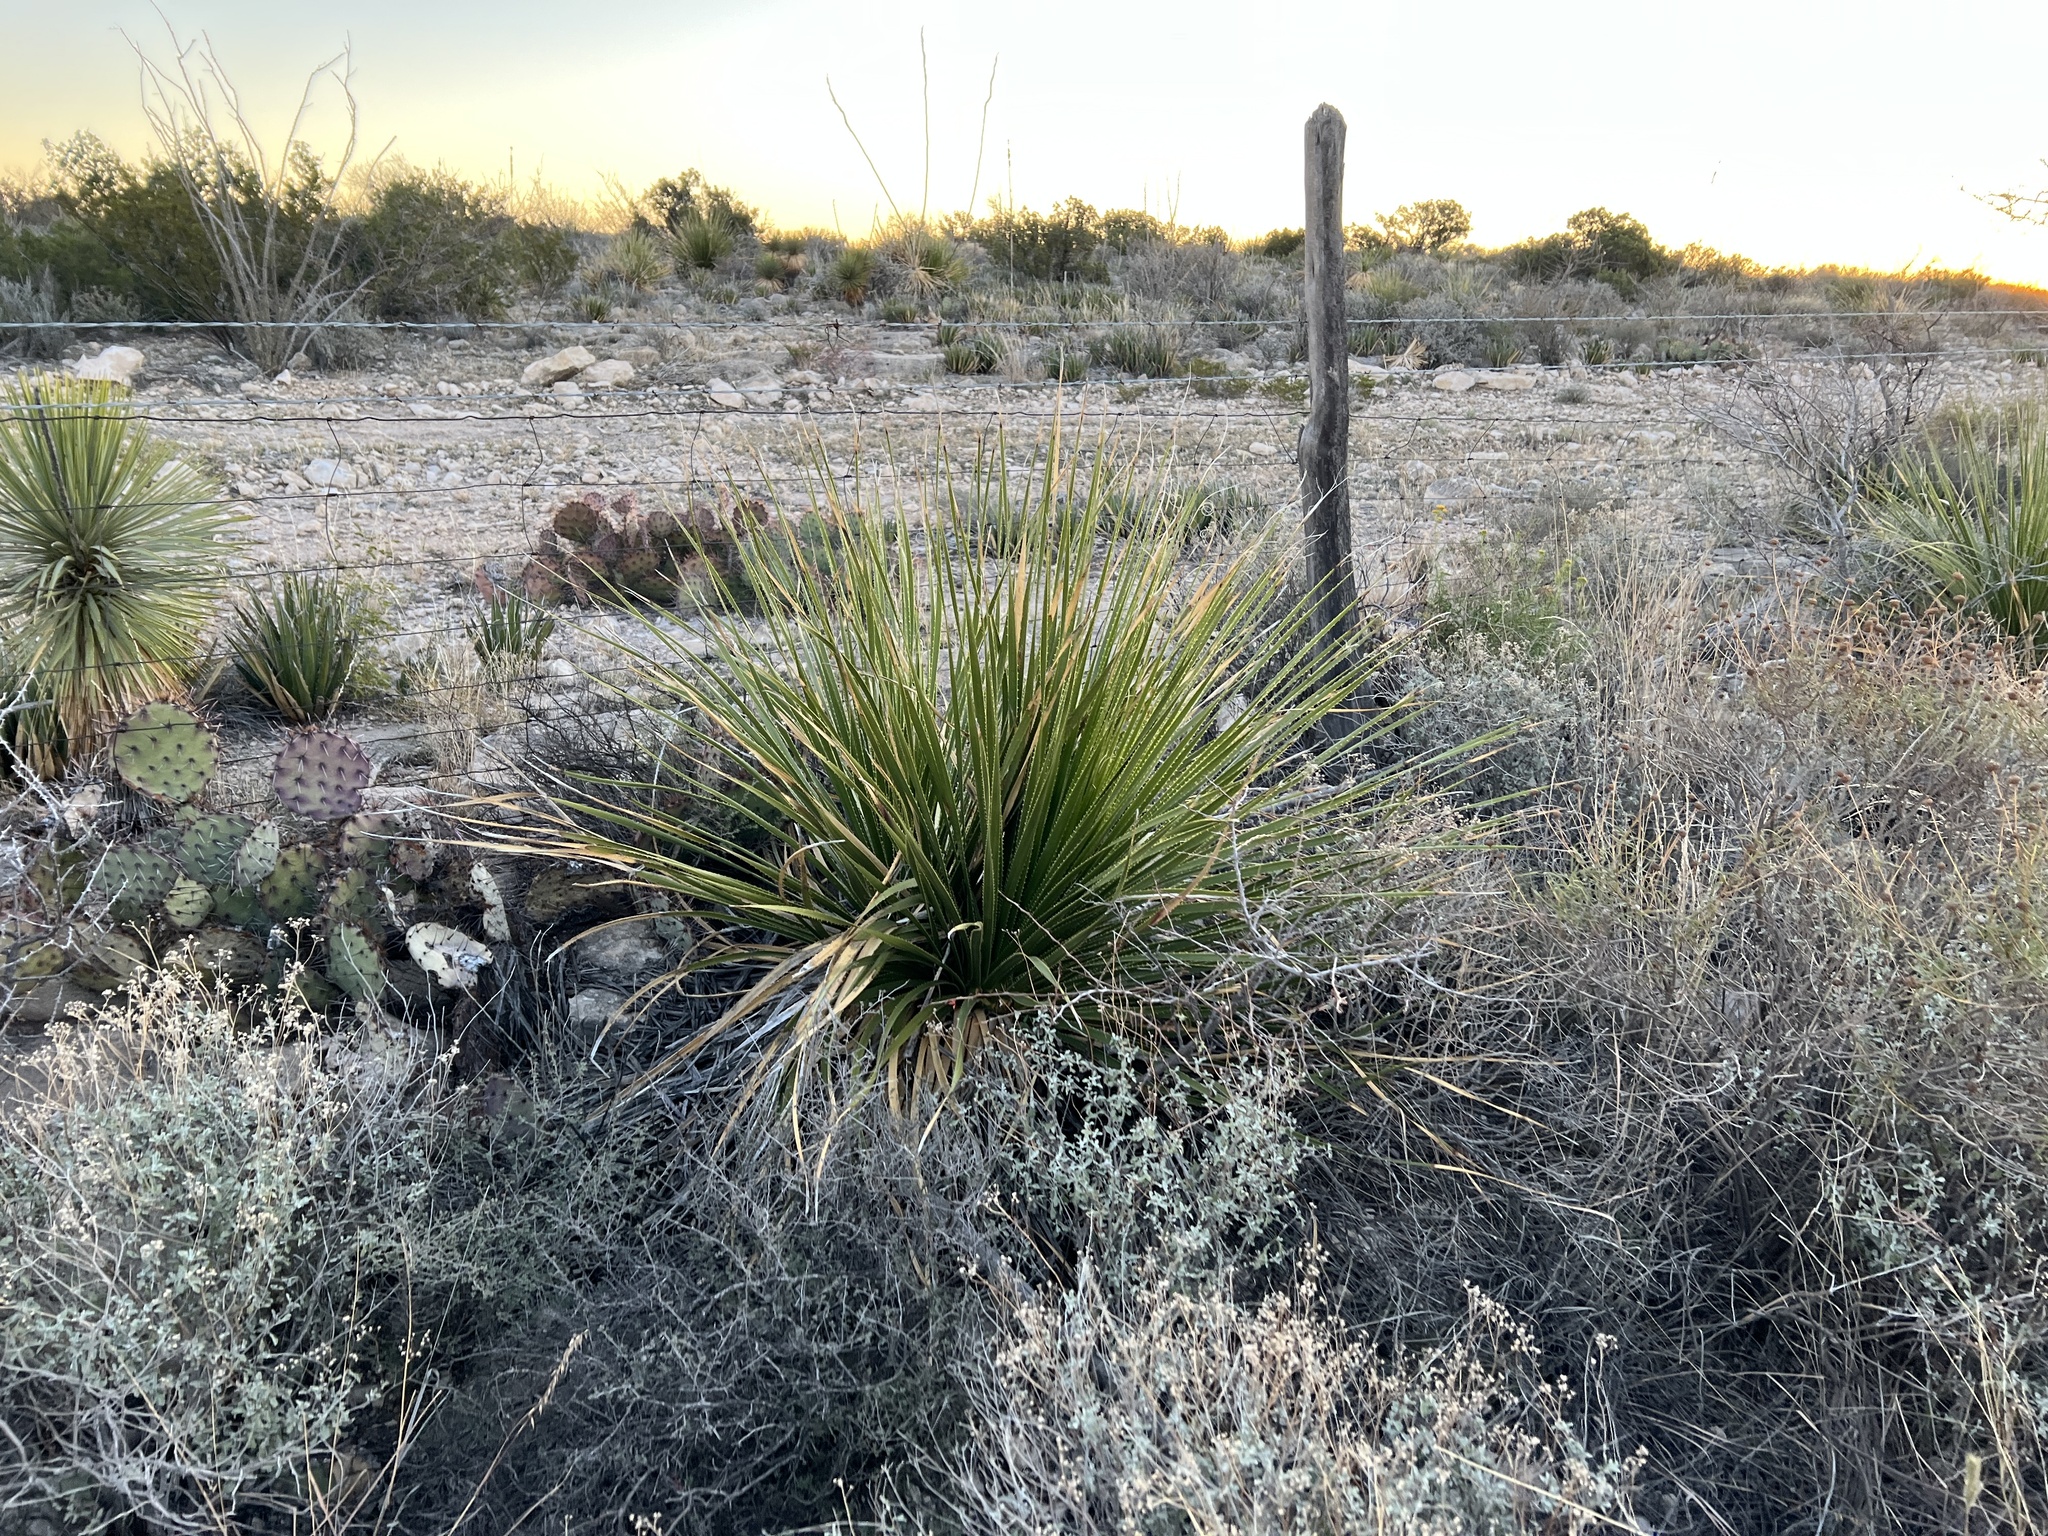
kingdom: Plantae
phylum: Tracheophyta
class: Liliopsida
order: Asparagales
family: Asparagaceae
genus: Dasylirion
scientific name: Dasylirion texanum
